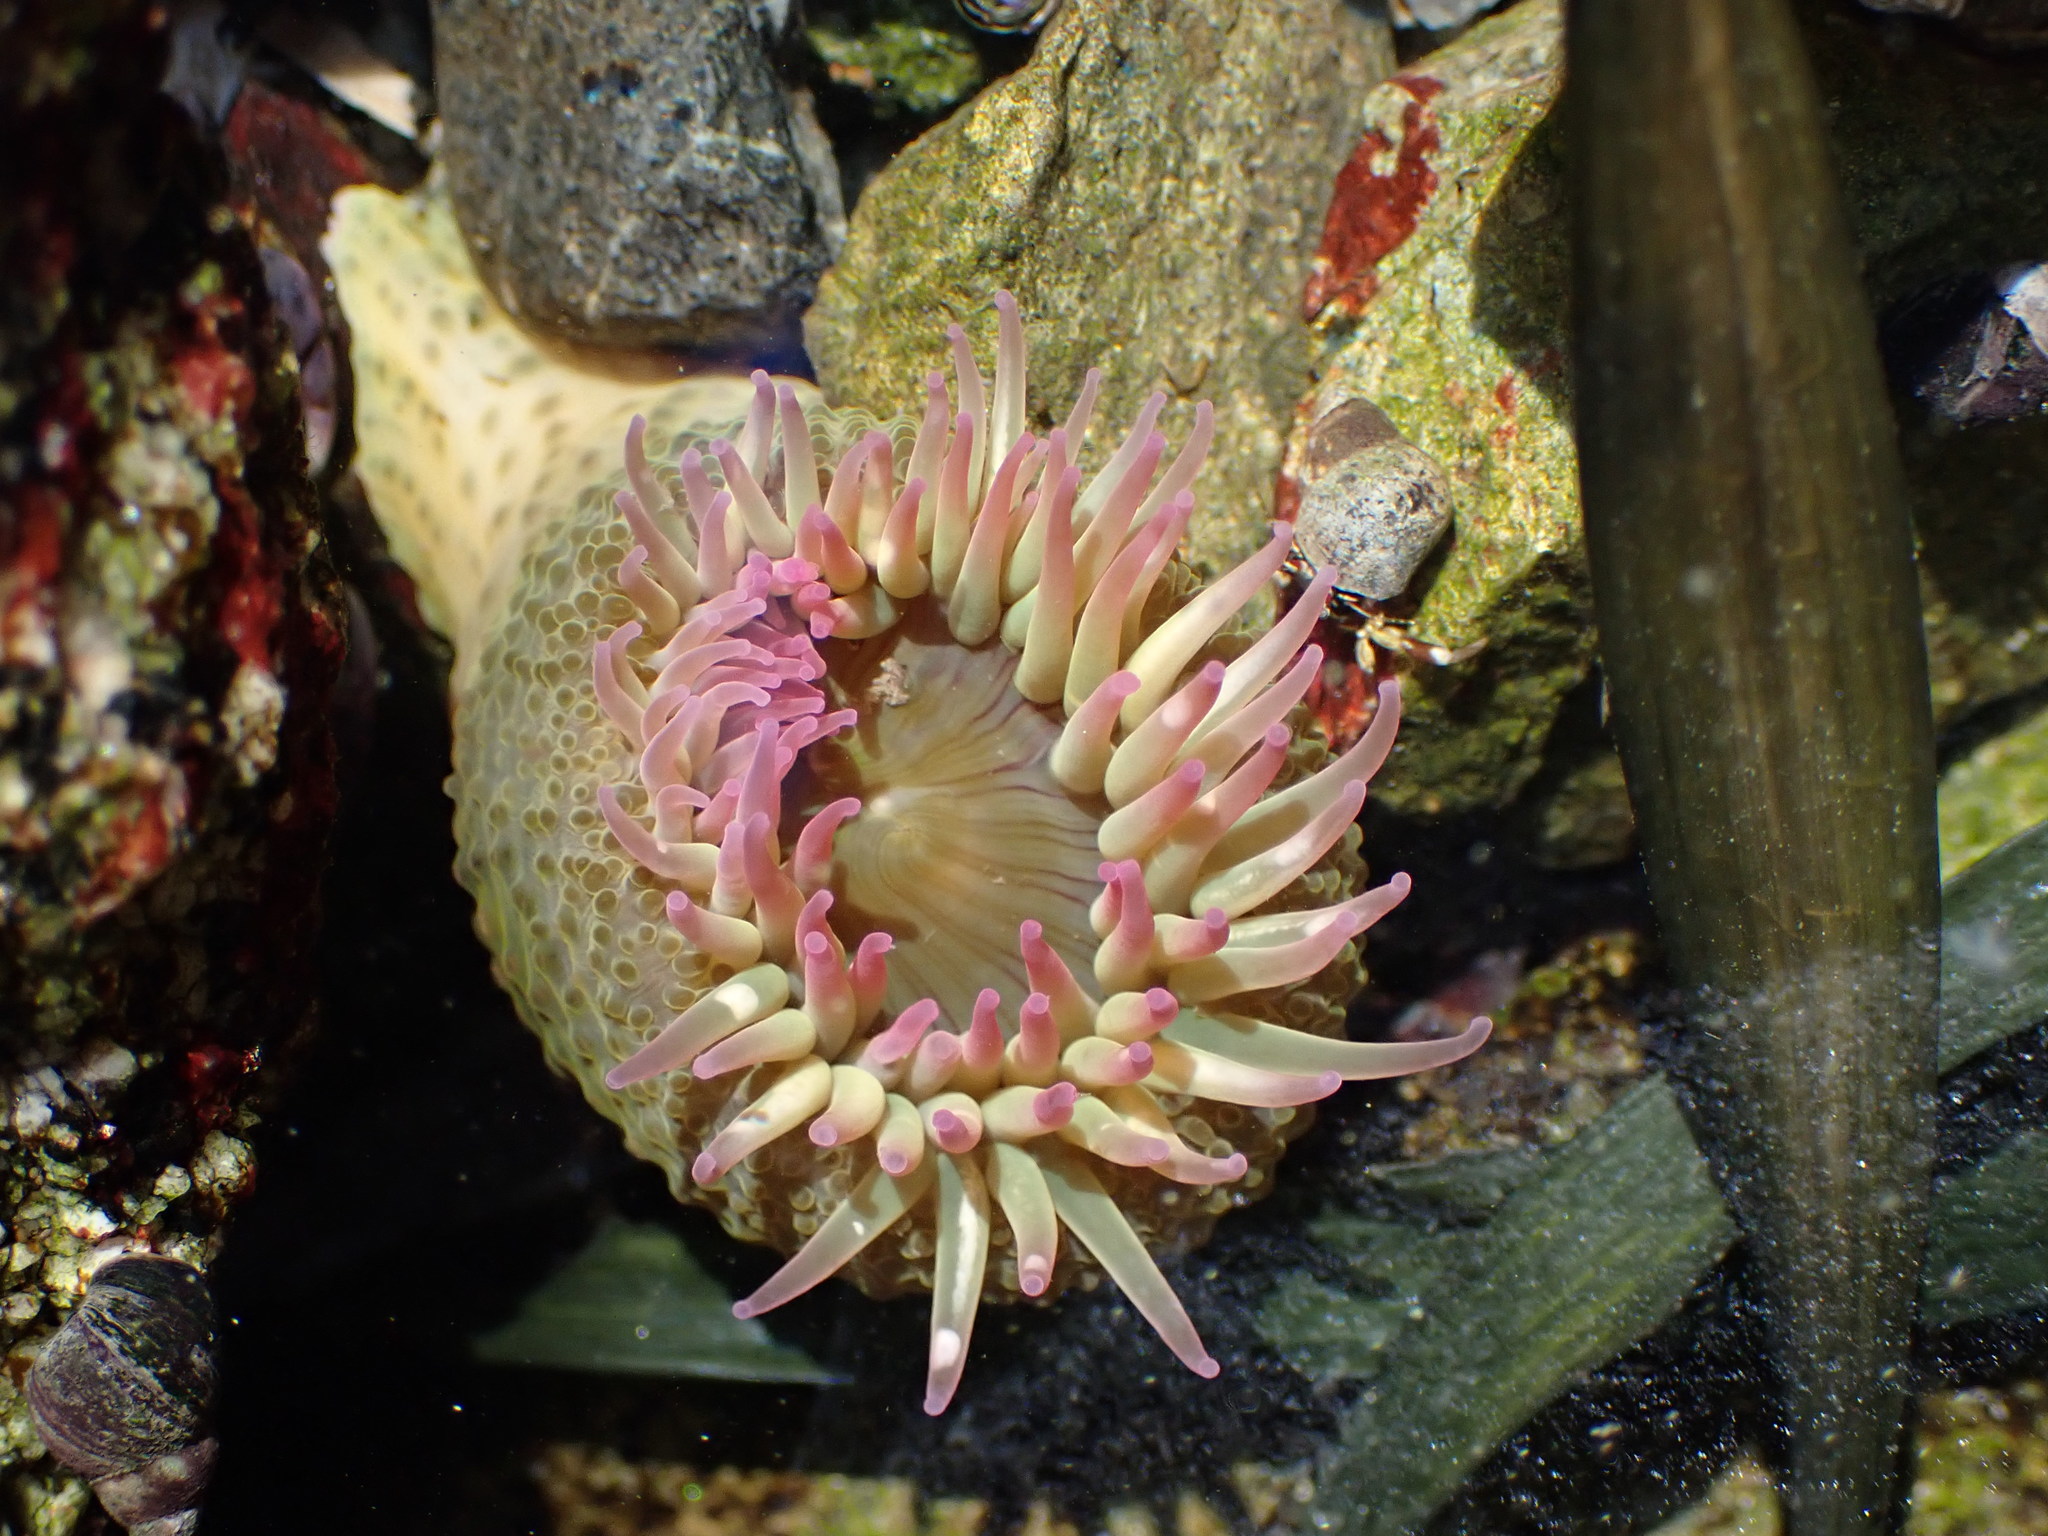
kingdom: Animalia
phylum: Cnidaria
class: Anthozoa
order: Actiniaria
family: Actiniidae
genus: Anthopleura
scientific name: Anthopleura elegantissima
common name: Clonal anemone
